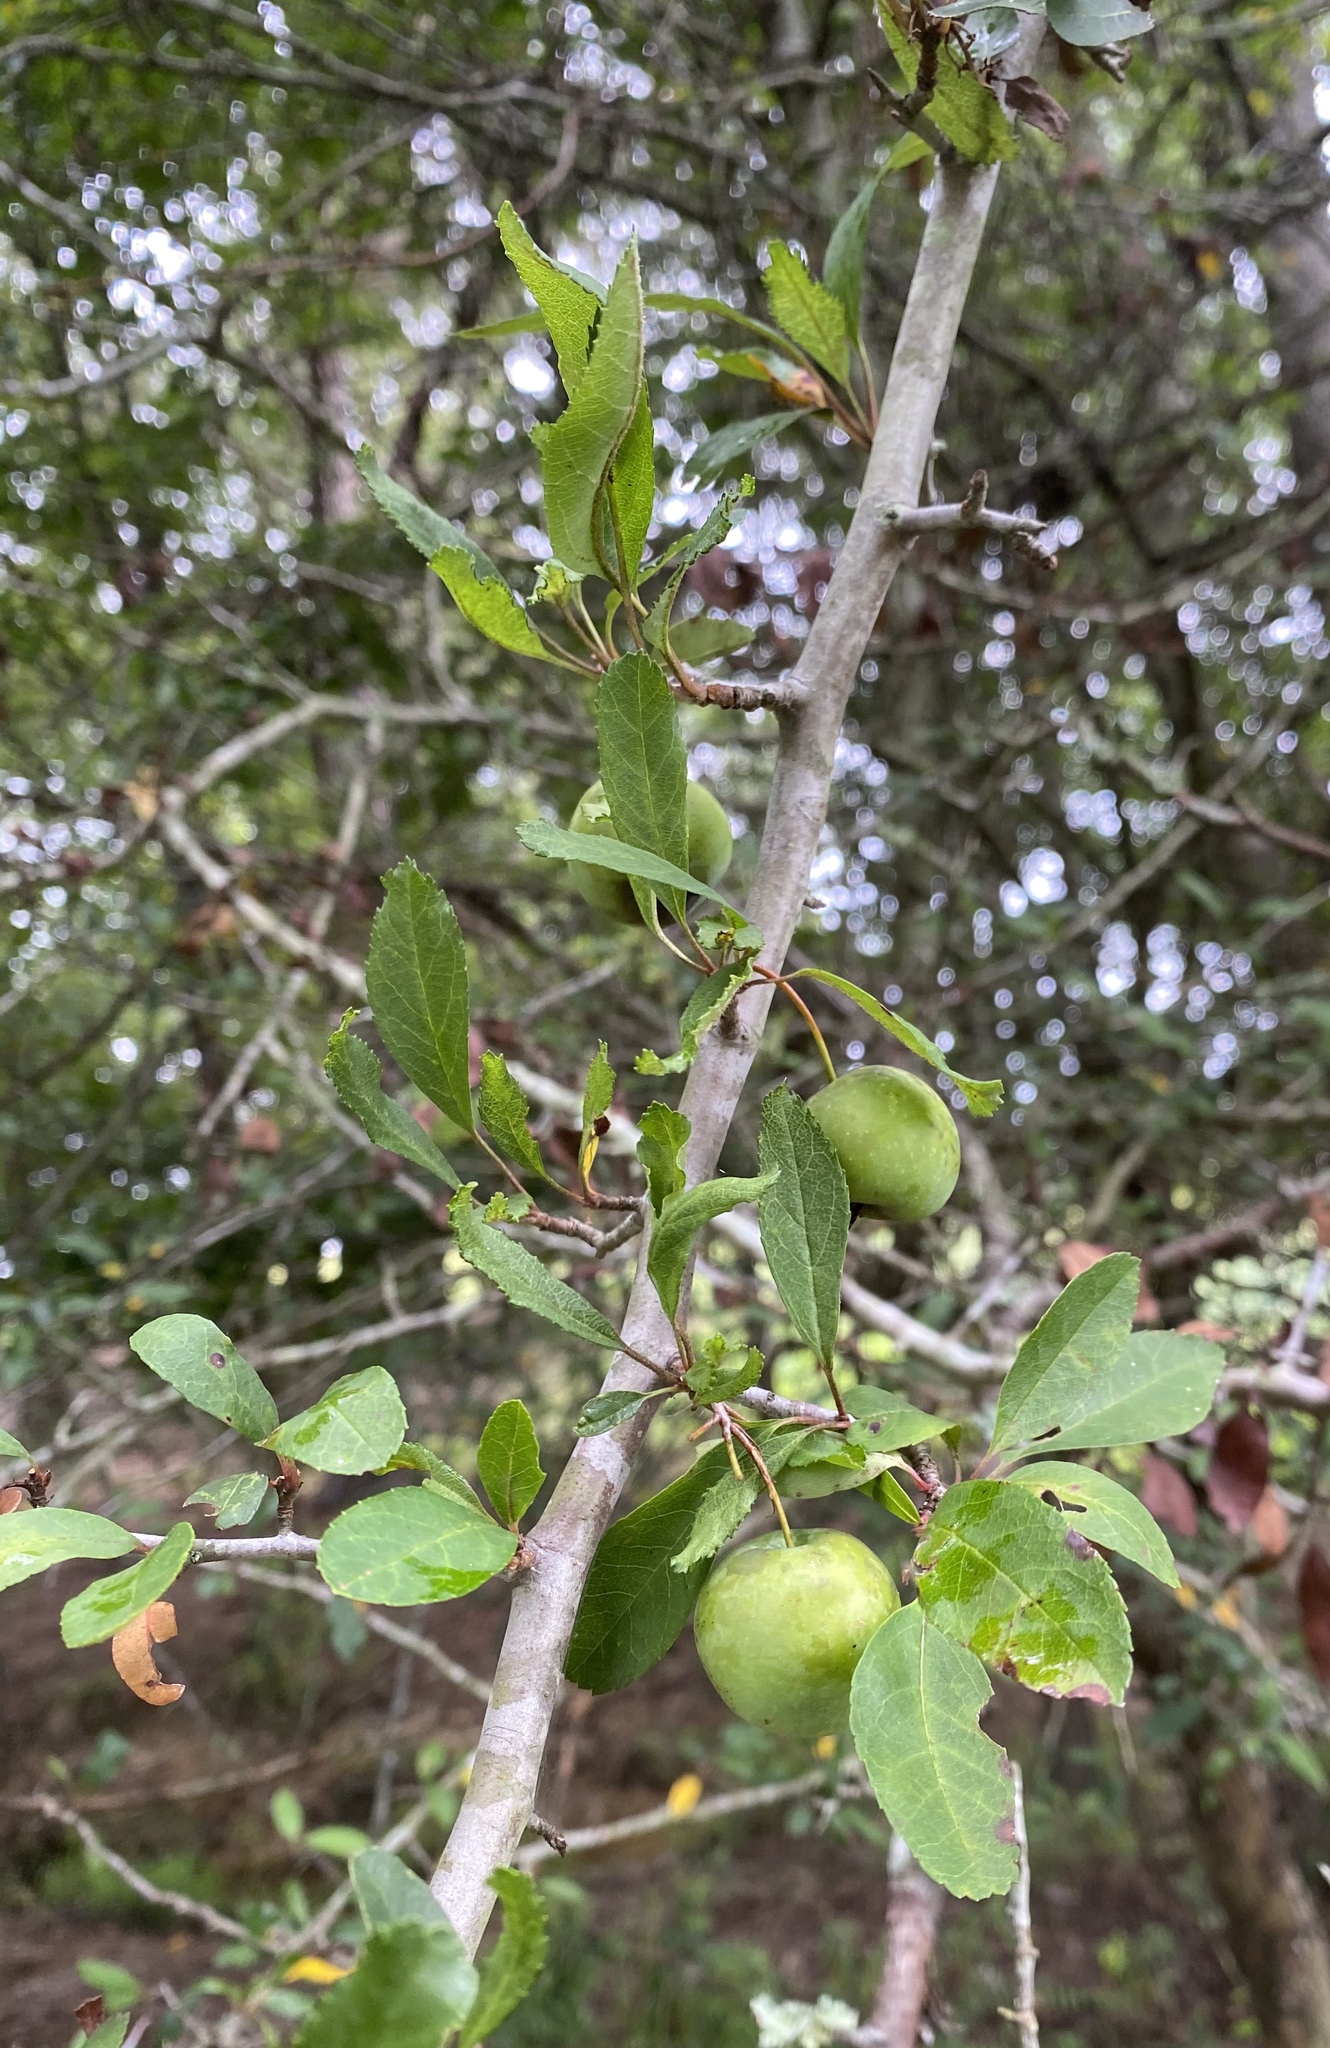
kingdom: Plantae
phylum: Tracheophyta
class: Magnoliopsida
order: Rosales
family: Rosaceae
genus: Malus
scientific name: Malus angustifolia
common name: Southern crab apple
